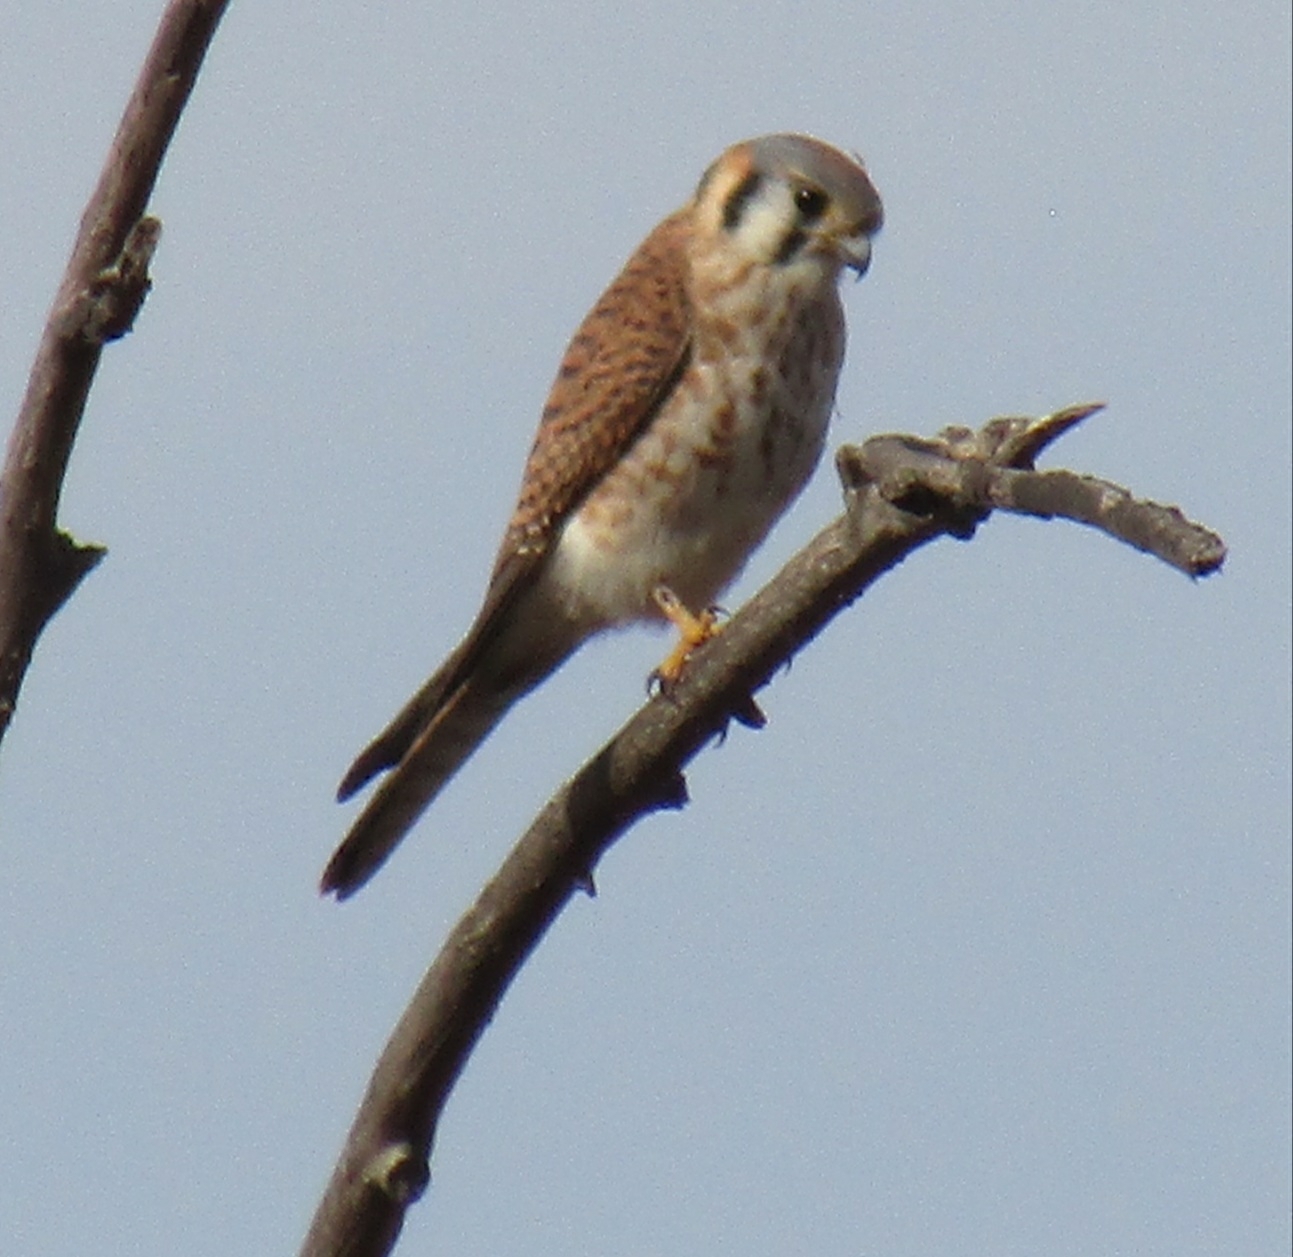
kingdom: Animalia
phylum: Chordata
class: Aves
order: Falconiformes
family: Falconidae
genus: Falco
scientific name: Falco sparverius
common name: American kestrel
